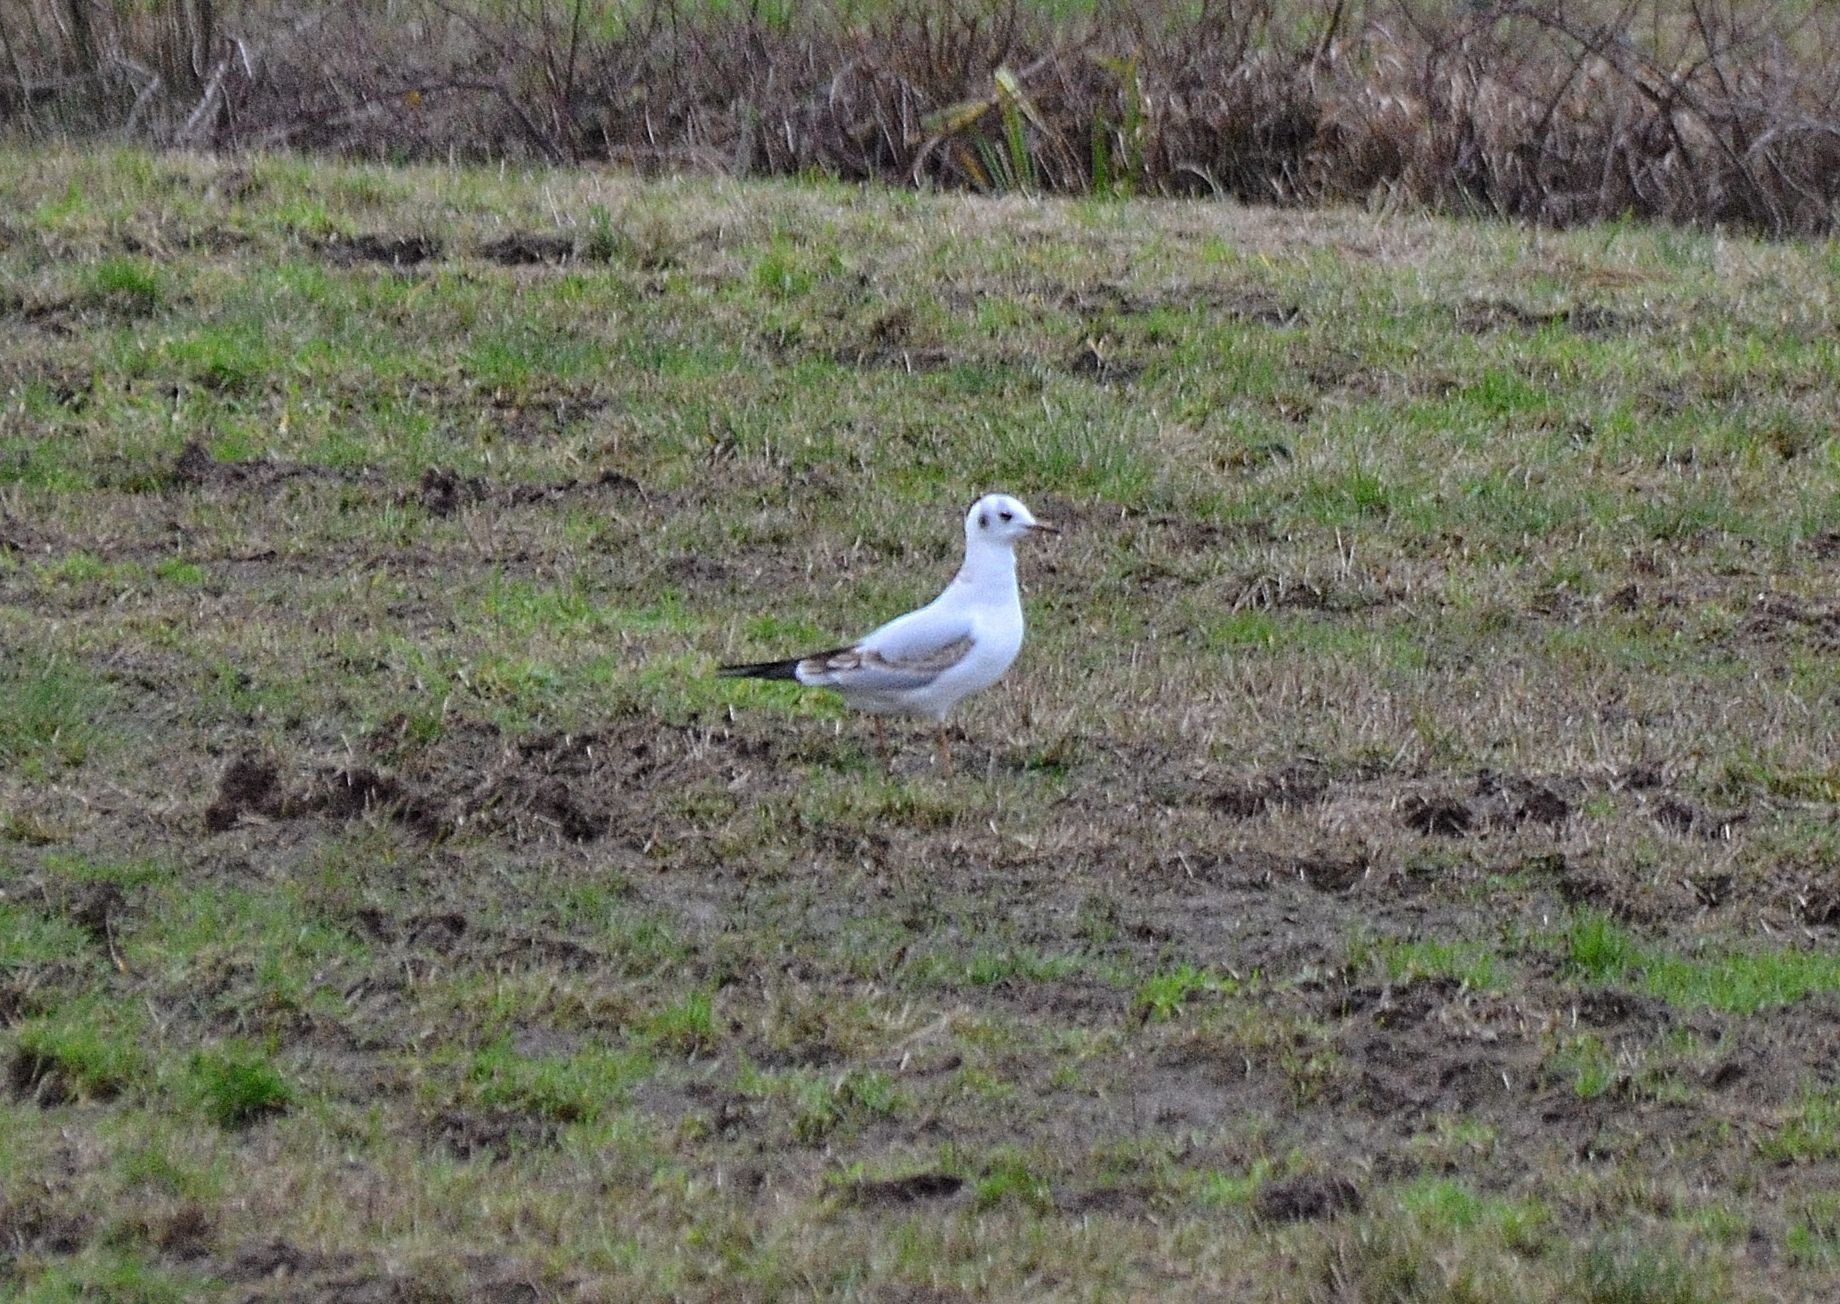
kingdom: Animalia
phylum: Chordata
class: Aves
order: Charadriiformes
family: Laridae
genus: Larus
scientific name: Larus canus
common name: Mew gull
